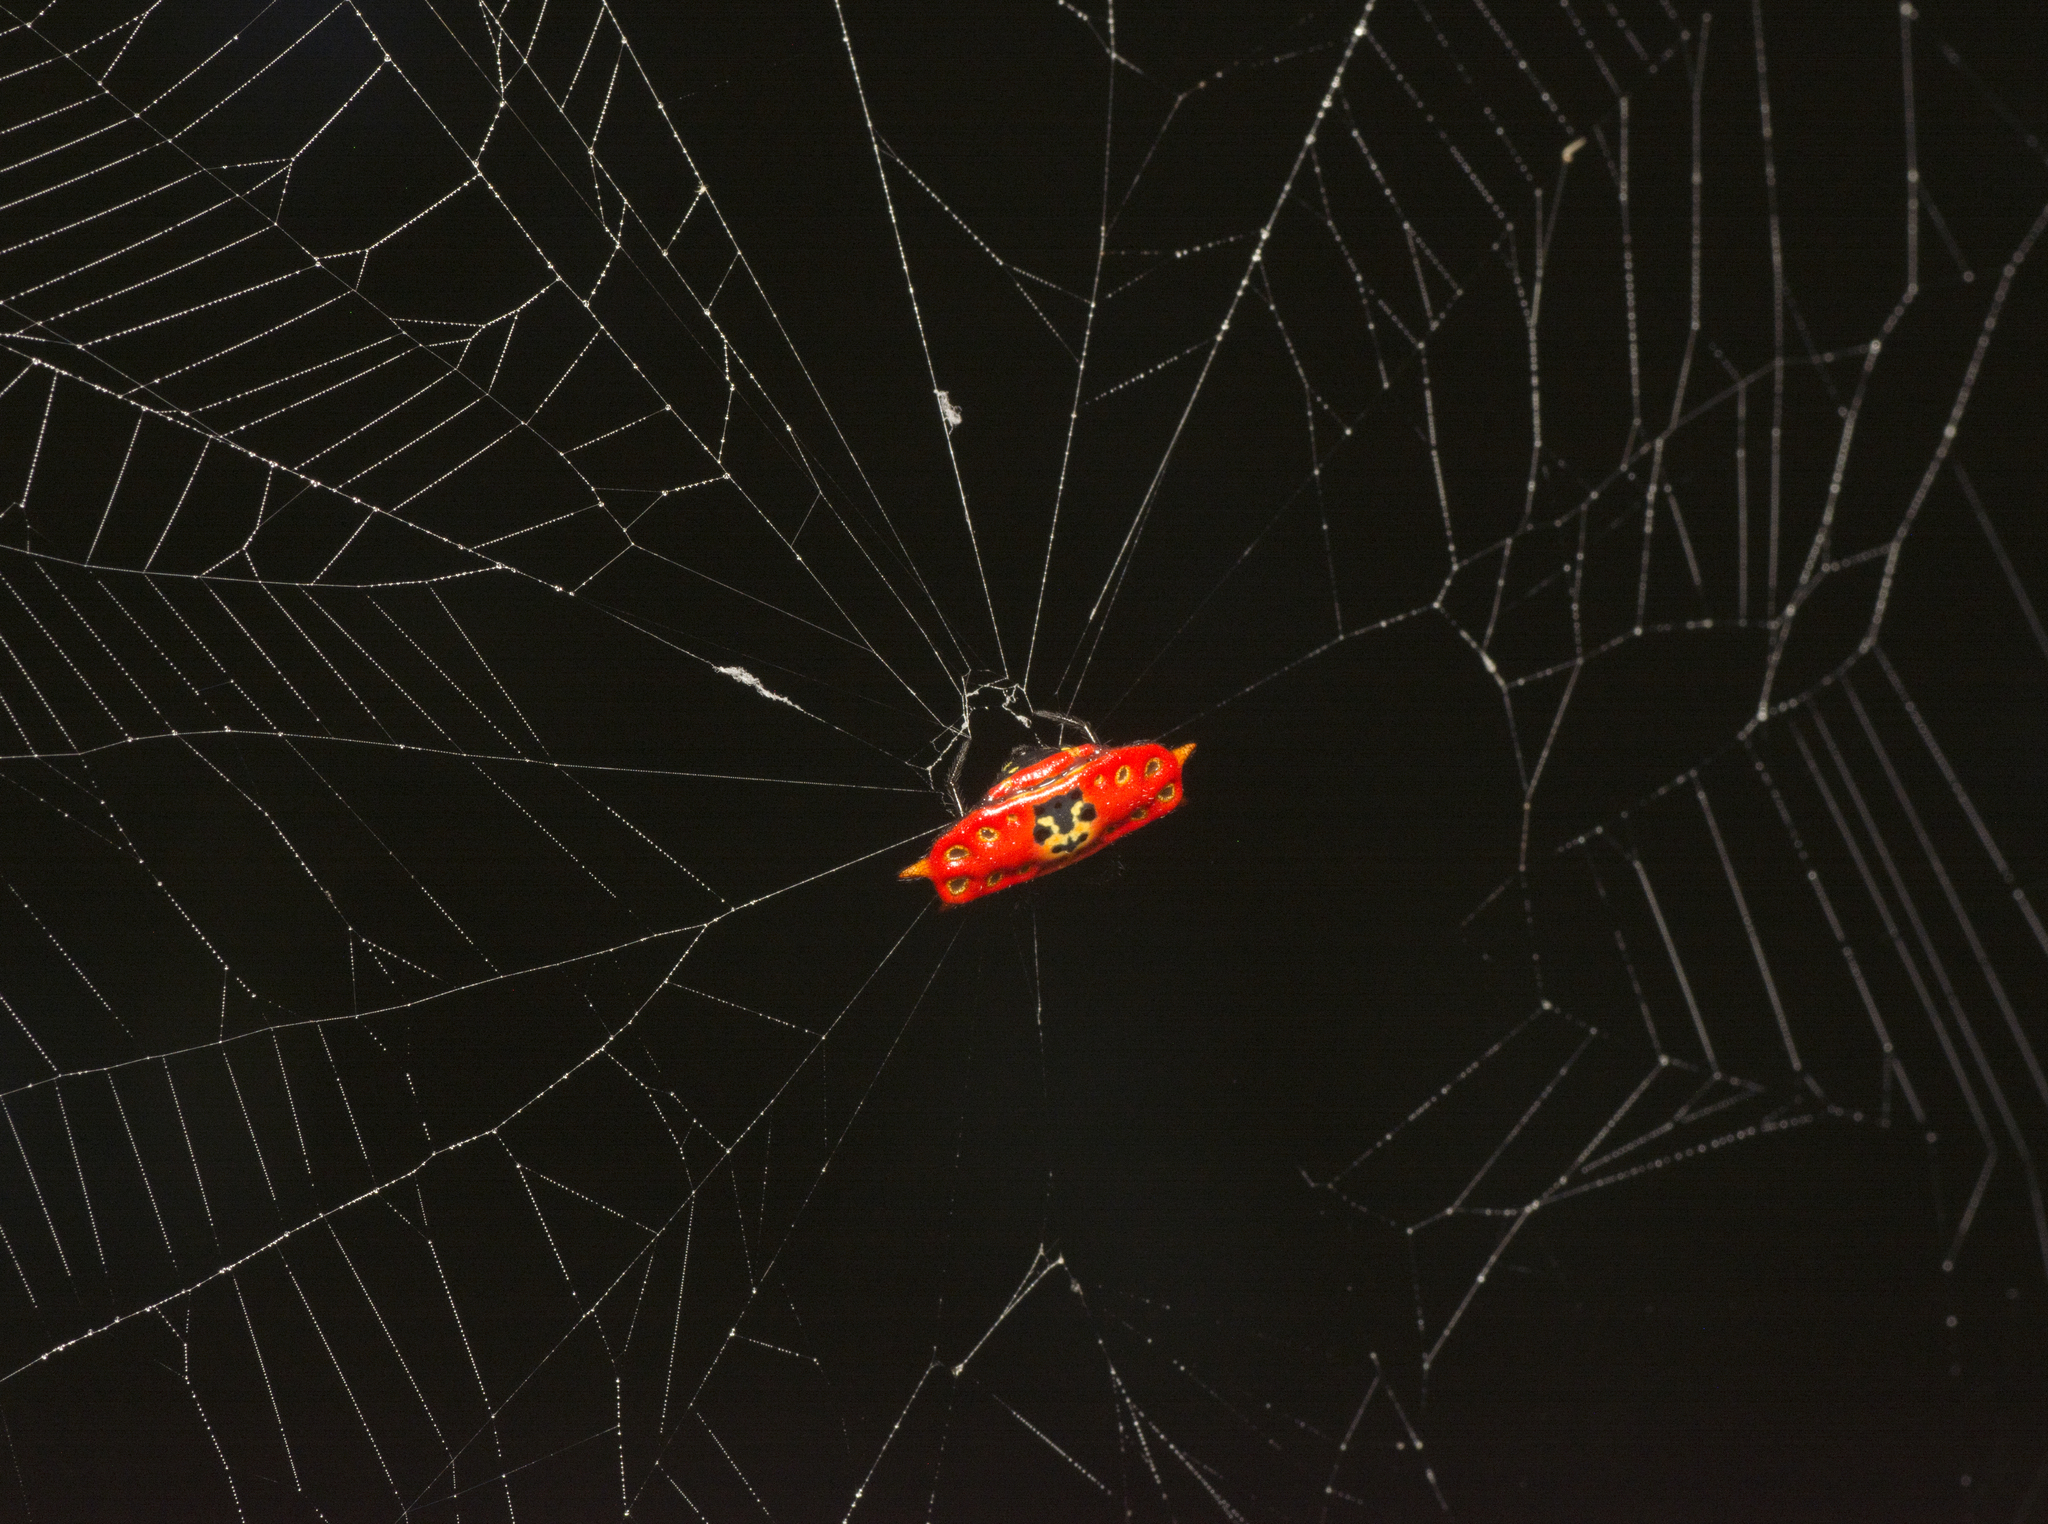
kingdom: Animalia
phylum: Arthropoda
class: Arachnida
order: Araneae
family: Araneidae
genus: Gasteracantha
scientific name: Gasteracantha quadrispinosa
